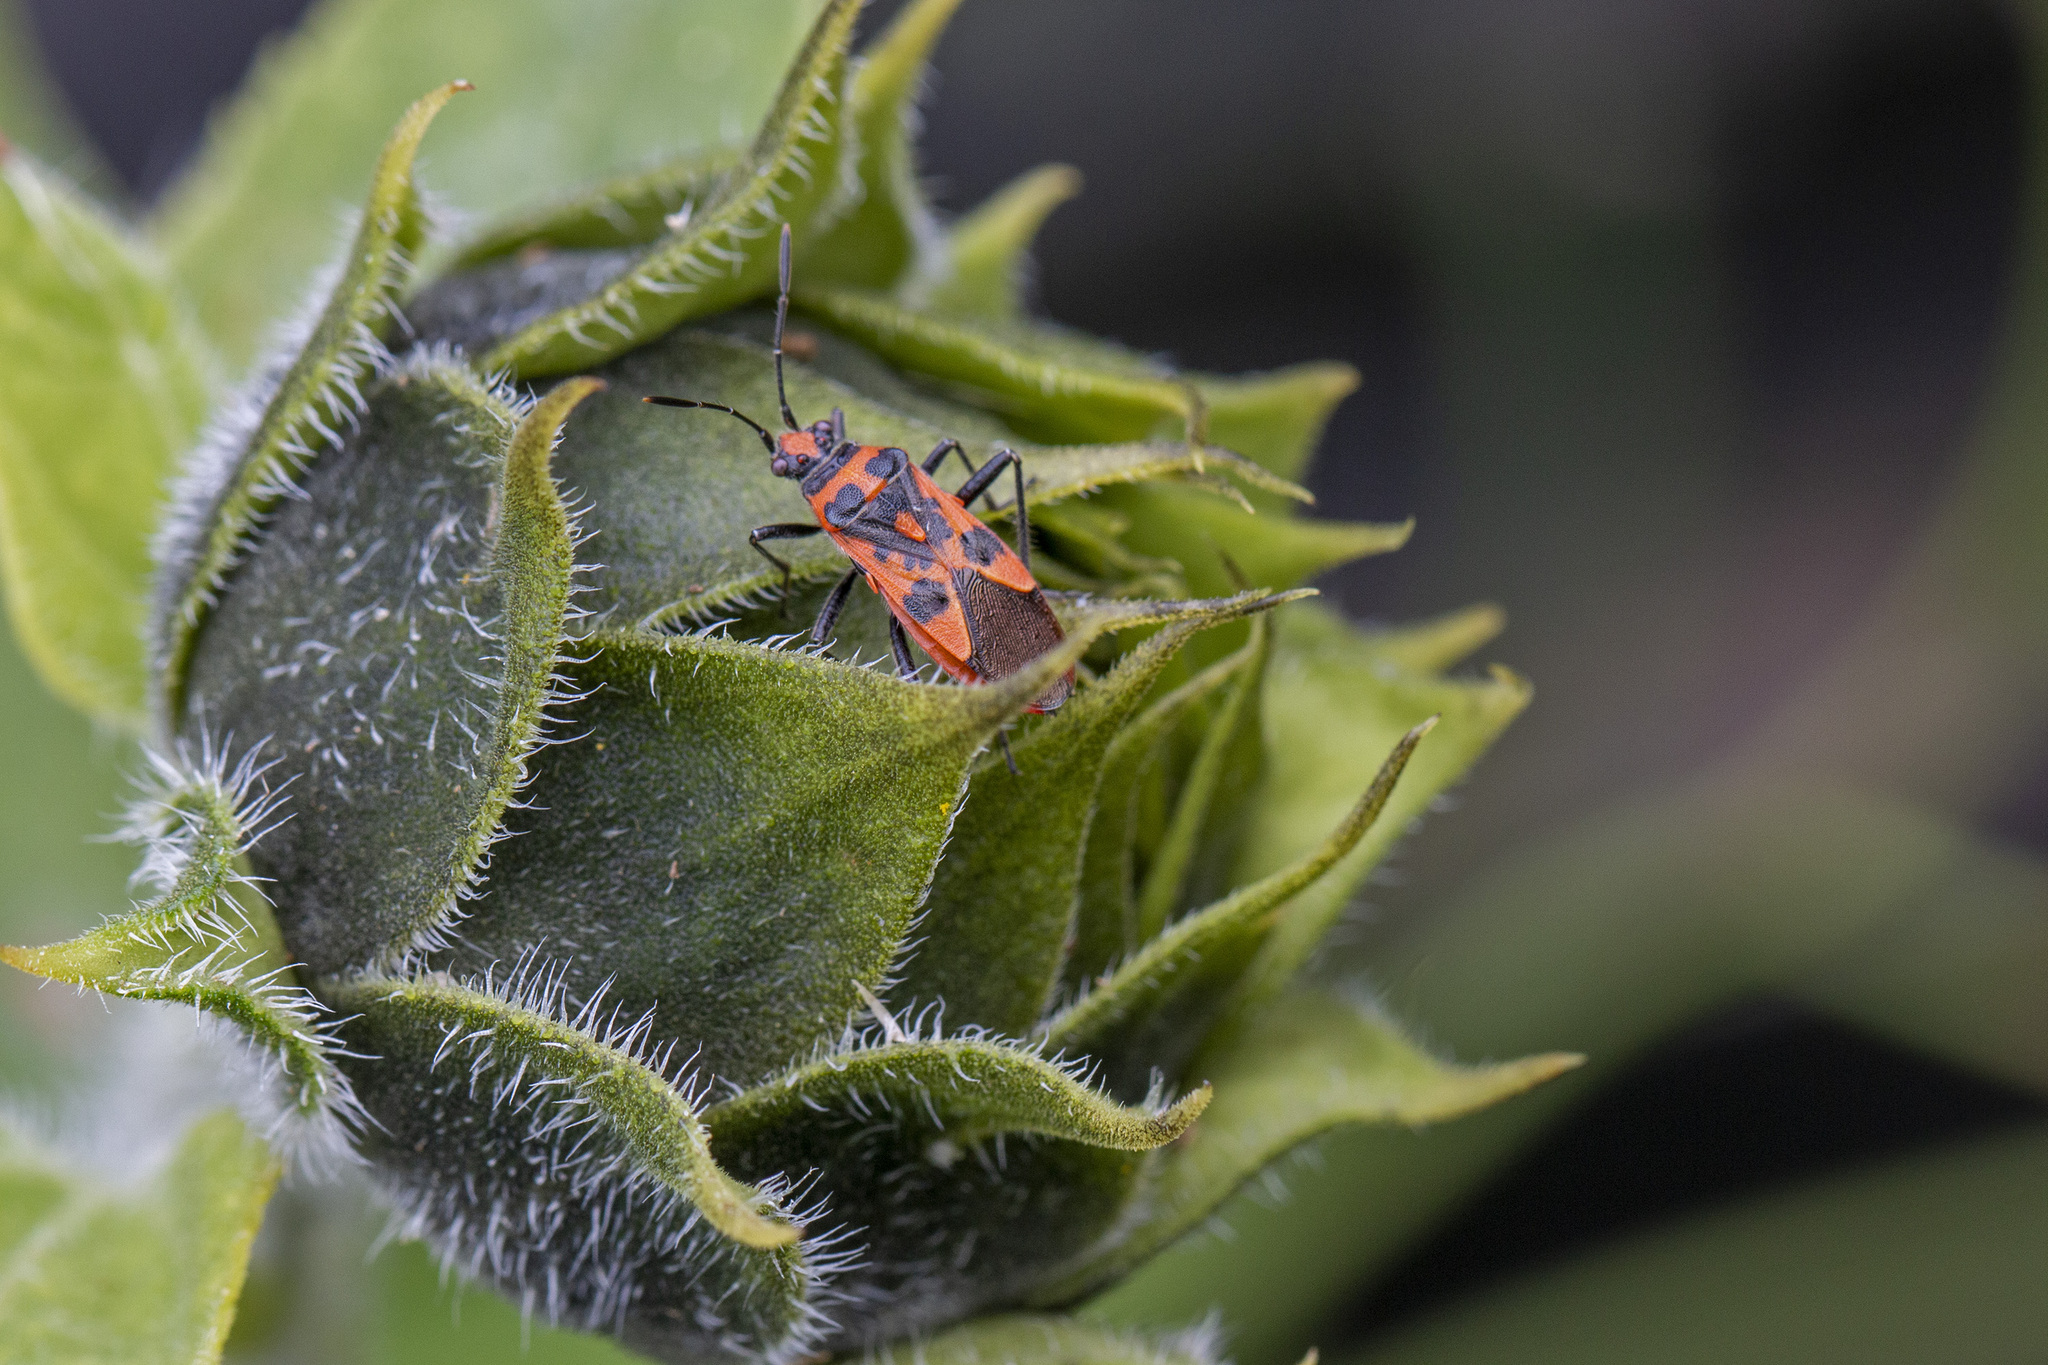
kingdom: Animalia
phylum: Arthropoda
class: Insecta
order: Hemiptera
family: Rhopalidae
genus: Corizus
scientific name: Corizus hyoscyami
